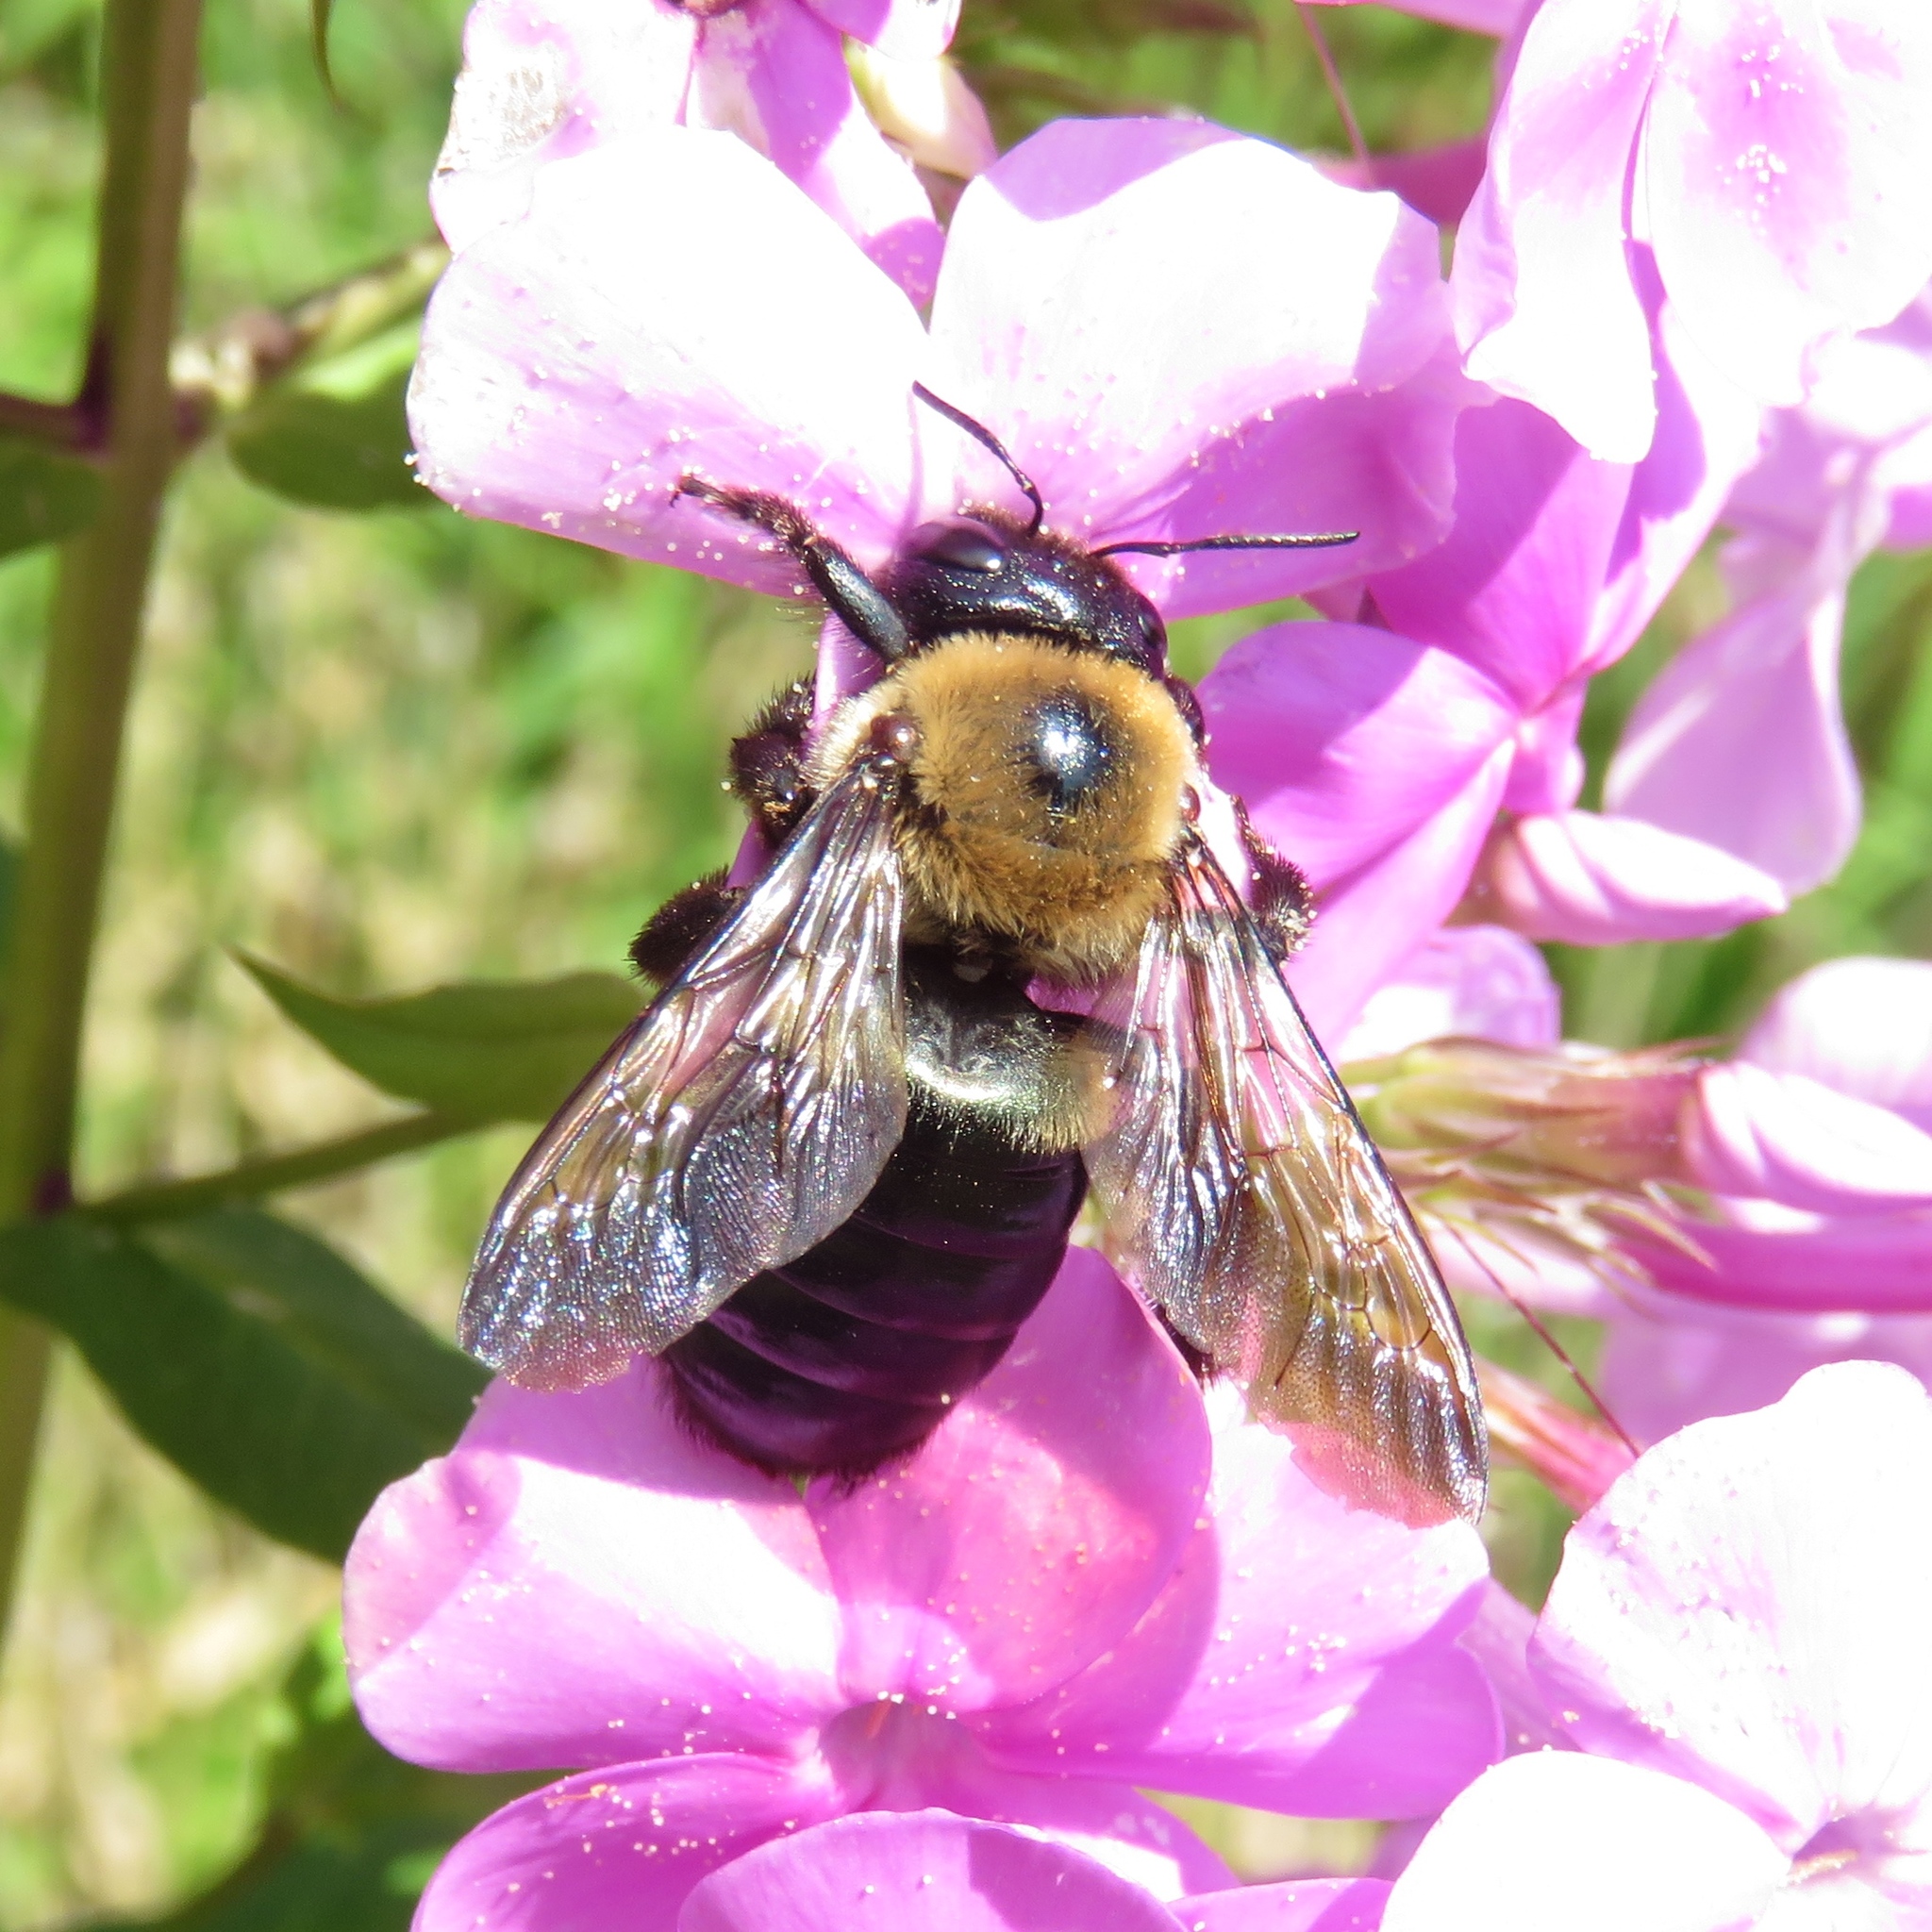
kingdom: Animalia
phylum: Arthropoda
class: Insecta
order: Hymenoptera
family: Apidae
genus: Xylocopa
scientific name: Xylocopa virginica
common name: Carpenter bee
